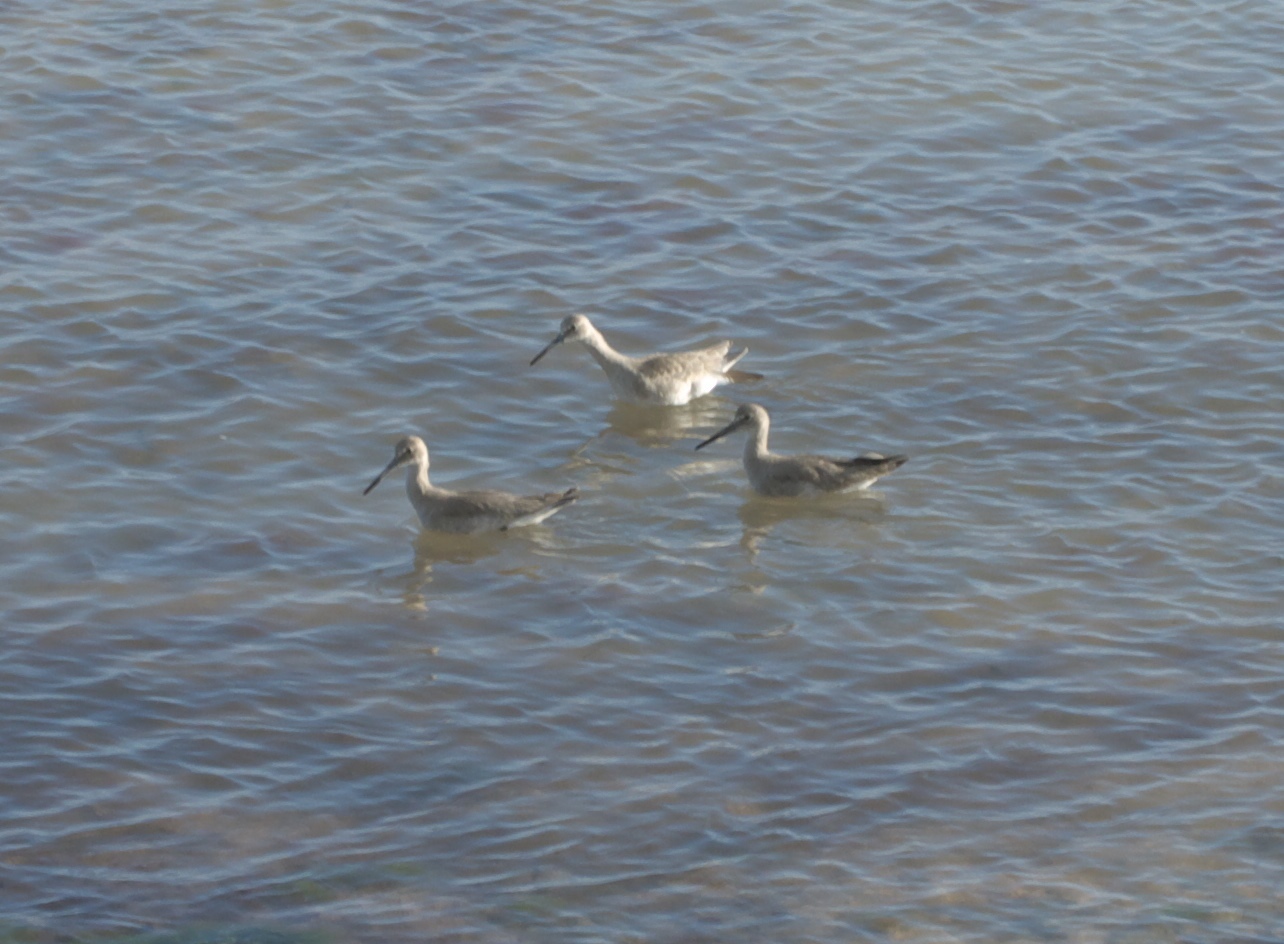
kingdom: Animalia
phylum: Chordata
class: Aves
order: Charadriiformes
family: Scolopacidae
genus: Tringa
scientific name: Tringa semipalmata
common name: Willet
